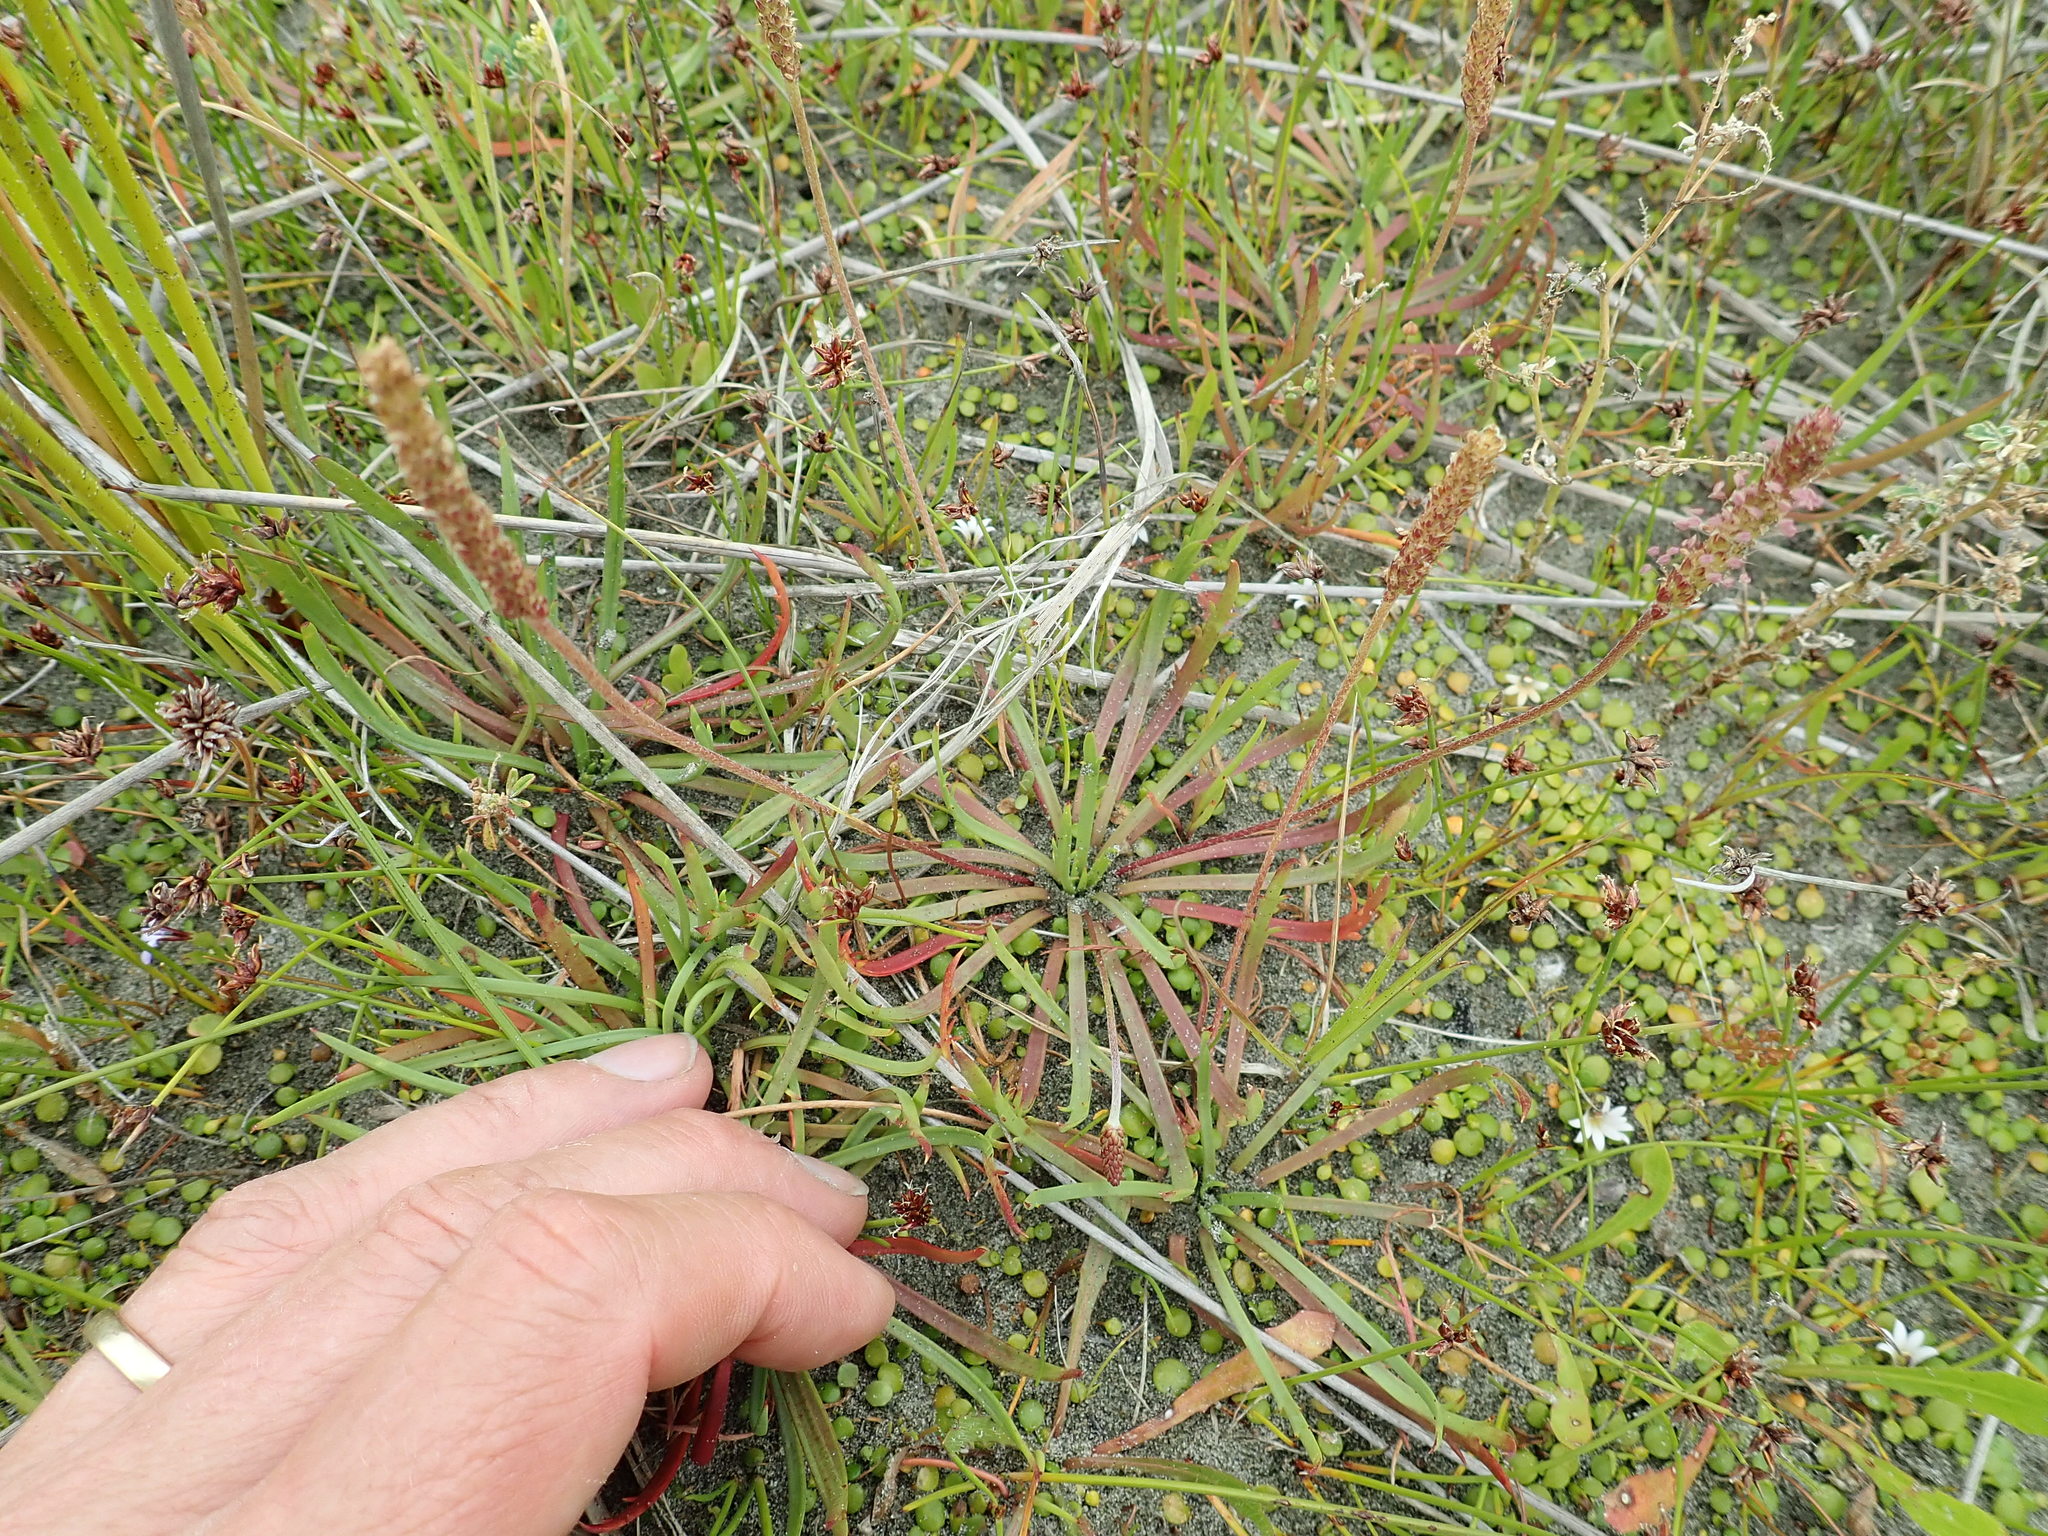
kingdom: Plantae
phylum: Tracheophyta
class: Magnoliopsida
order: Lamiales
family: Plantaginaceae
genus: Plantago
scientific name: Plantago coronopus
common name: Buck's-horn plantain
